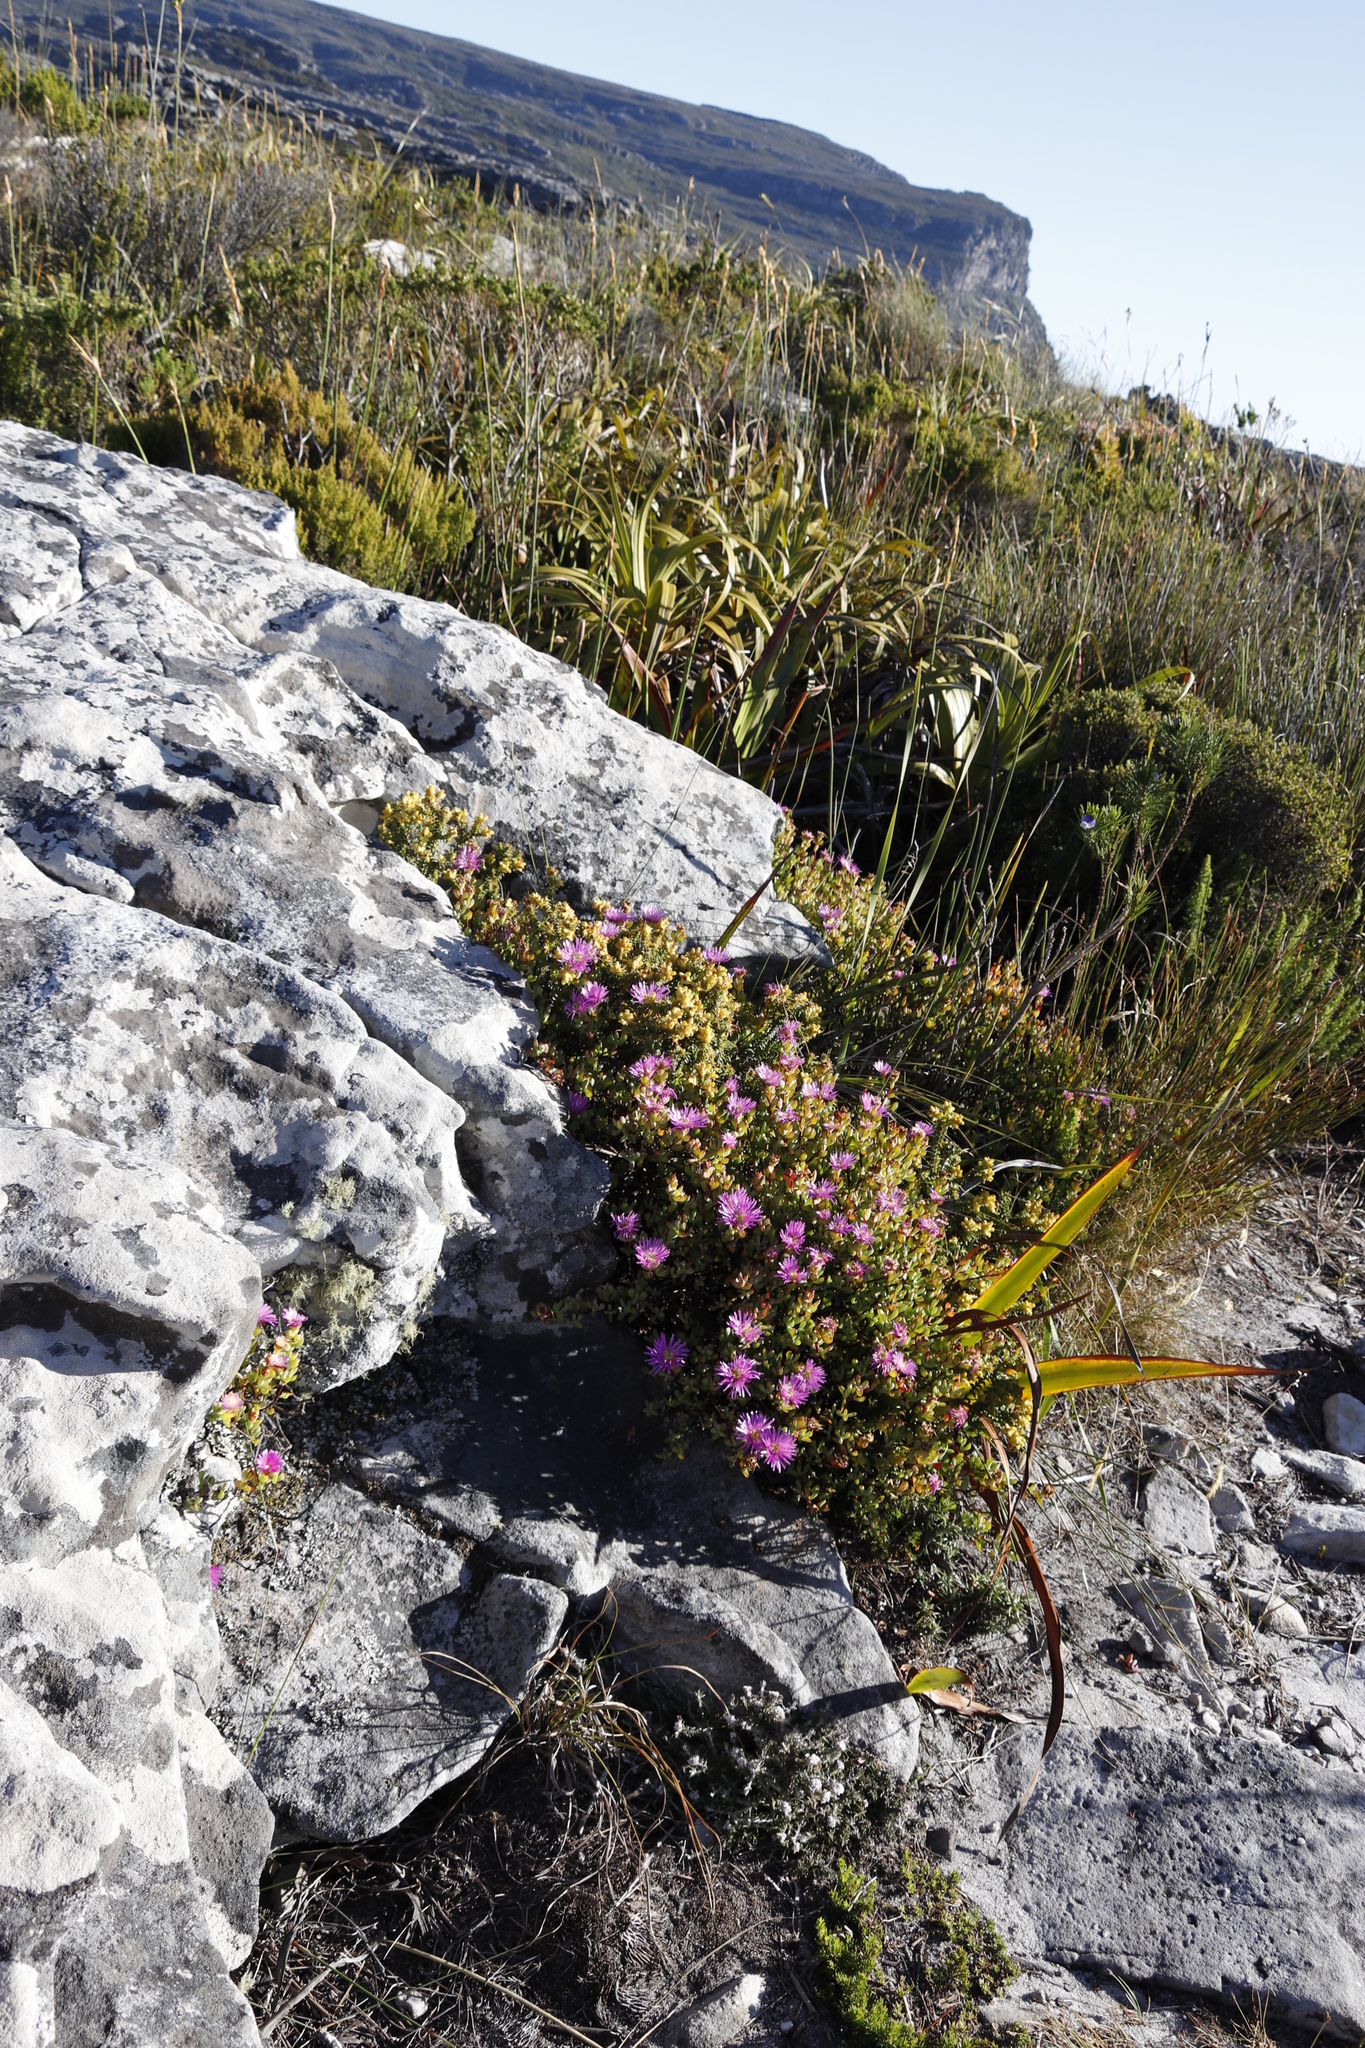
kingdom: Plantae
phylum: Tracheophyta
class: Magnoliopsida
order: Caryophyllales
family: Aizoaceae
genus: Oscularia
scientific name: Oscularia falciformis
